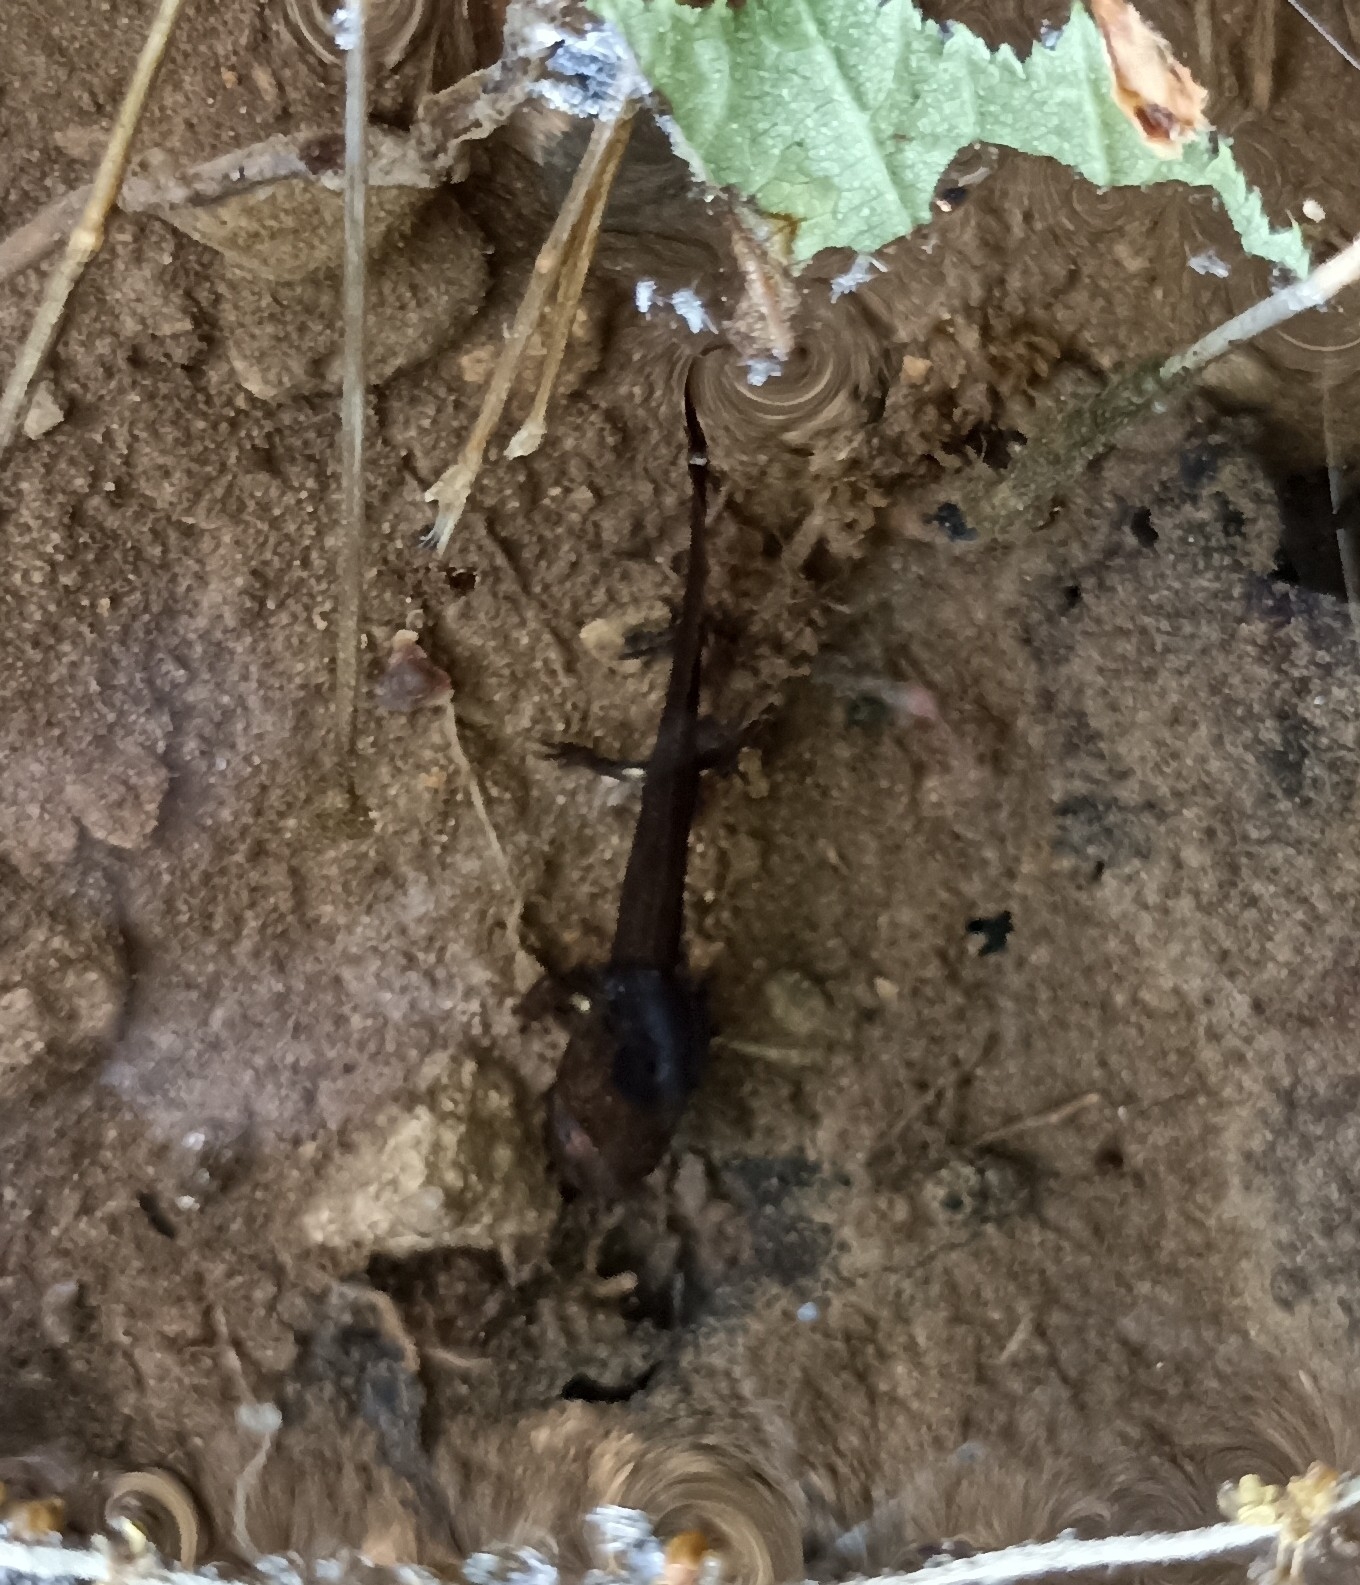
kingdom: Animalia
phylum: Chordata
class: Amphibia
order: Caudata
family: Salamandridae
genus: Salamandra
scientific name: Salamandra salamandra
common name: Fire salamander
